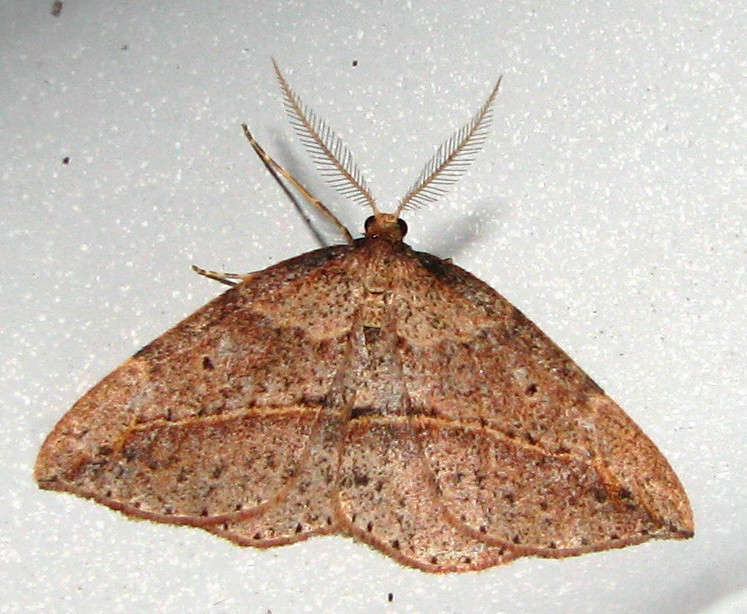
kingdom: Animalia
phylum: Arthropoda
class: Insecta
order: Lepidoptera
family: Geometridae
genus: Zeuctophlebia
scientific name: Zeuctophlebia squalidata
